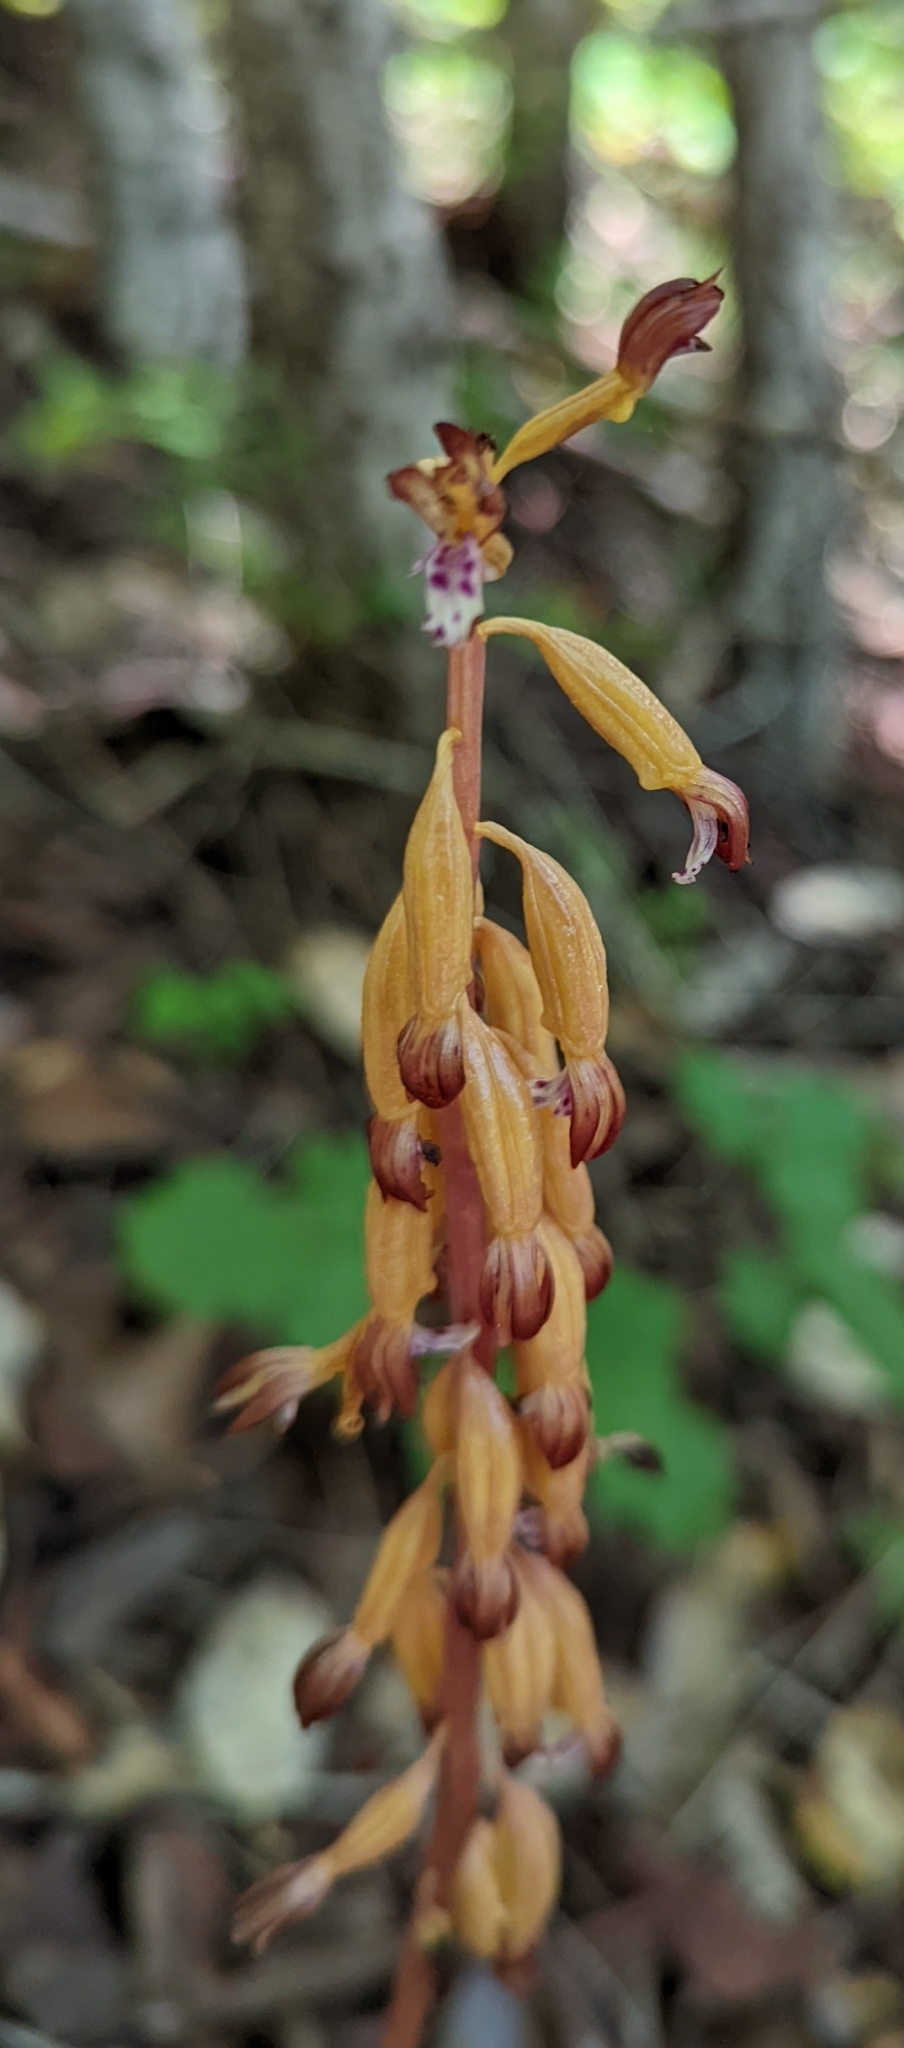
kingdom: Plantae
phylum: Tracheophyta
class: Liliopsida
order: Asparagales
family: Orchidaceae
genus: Corallorhiza
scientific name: Corallorhiza maculata
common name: Spotted coralroot
